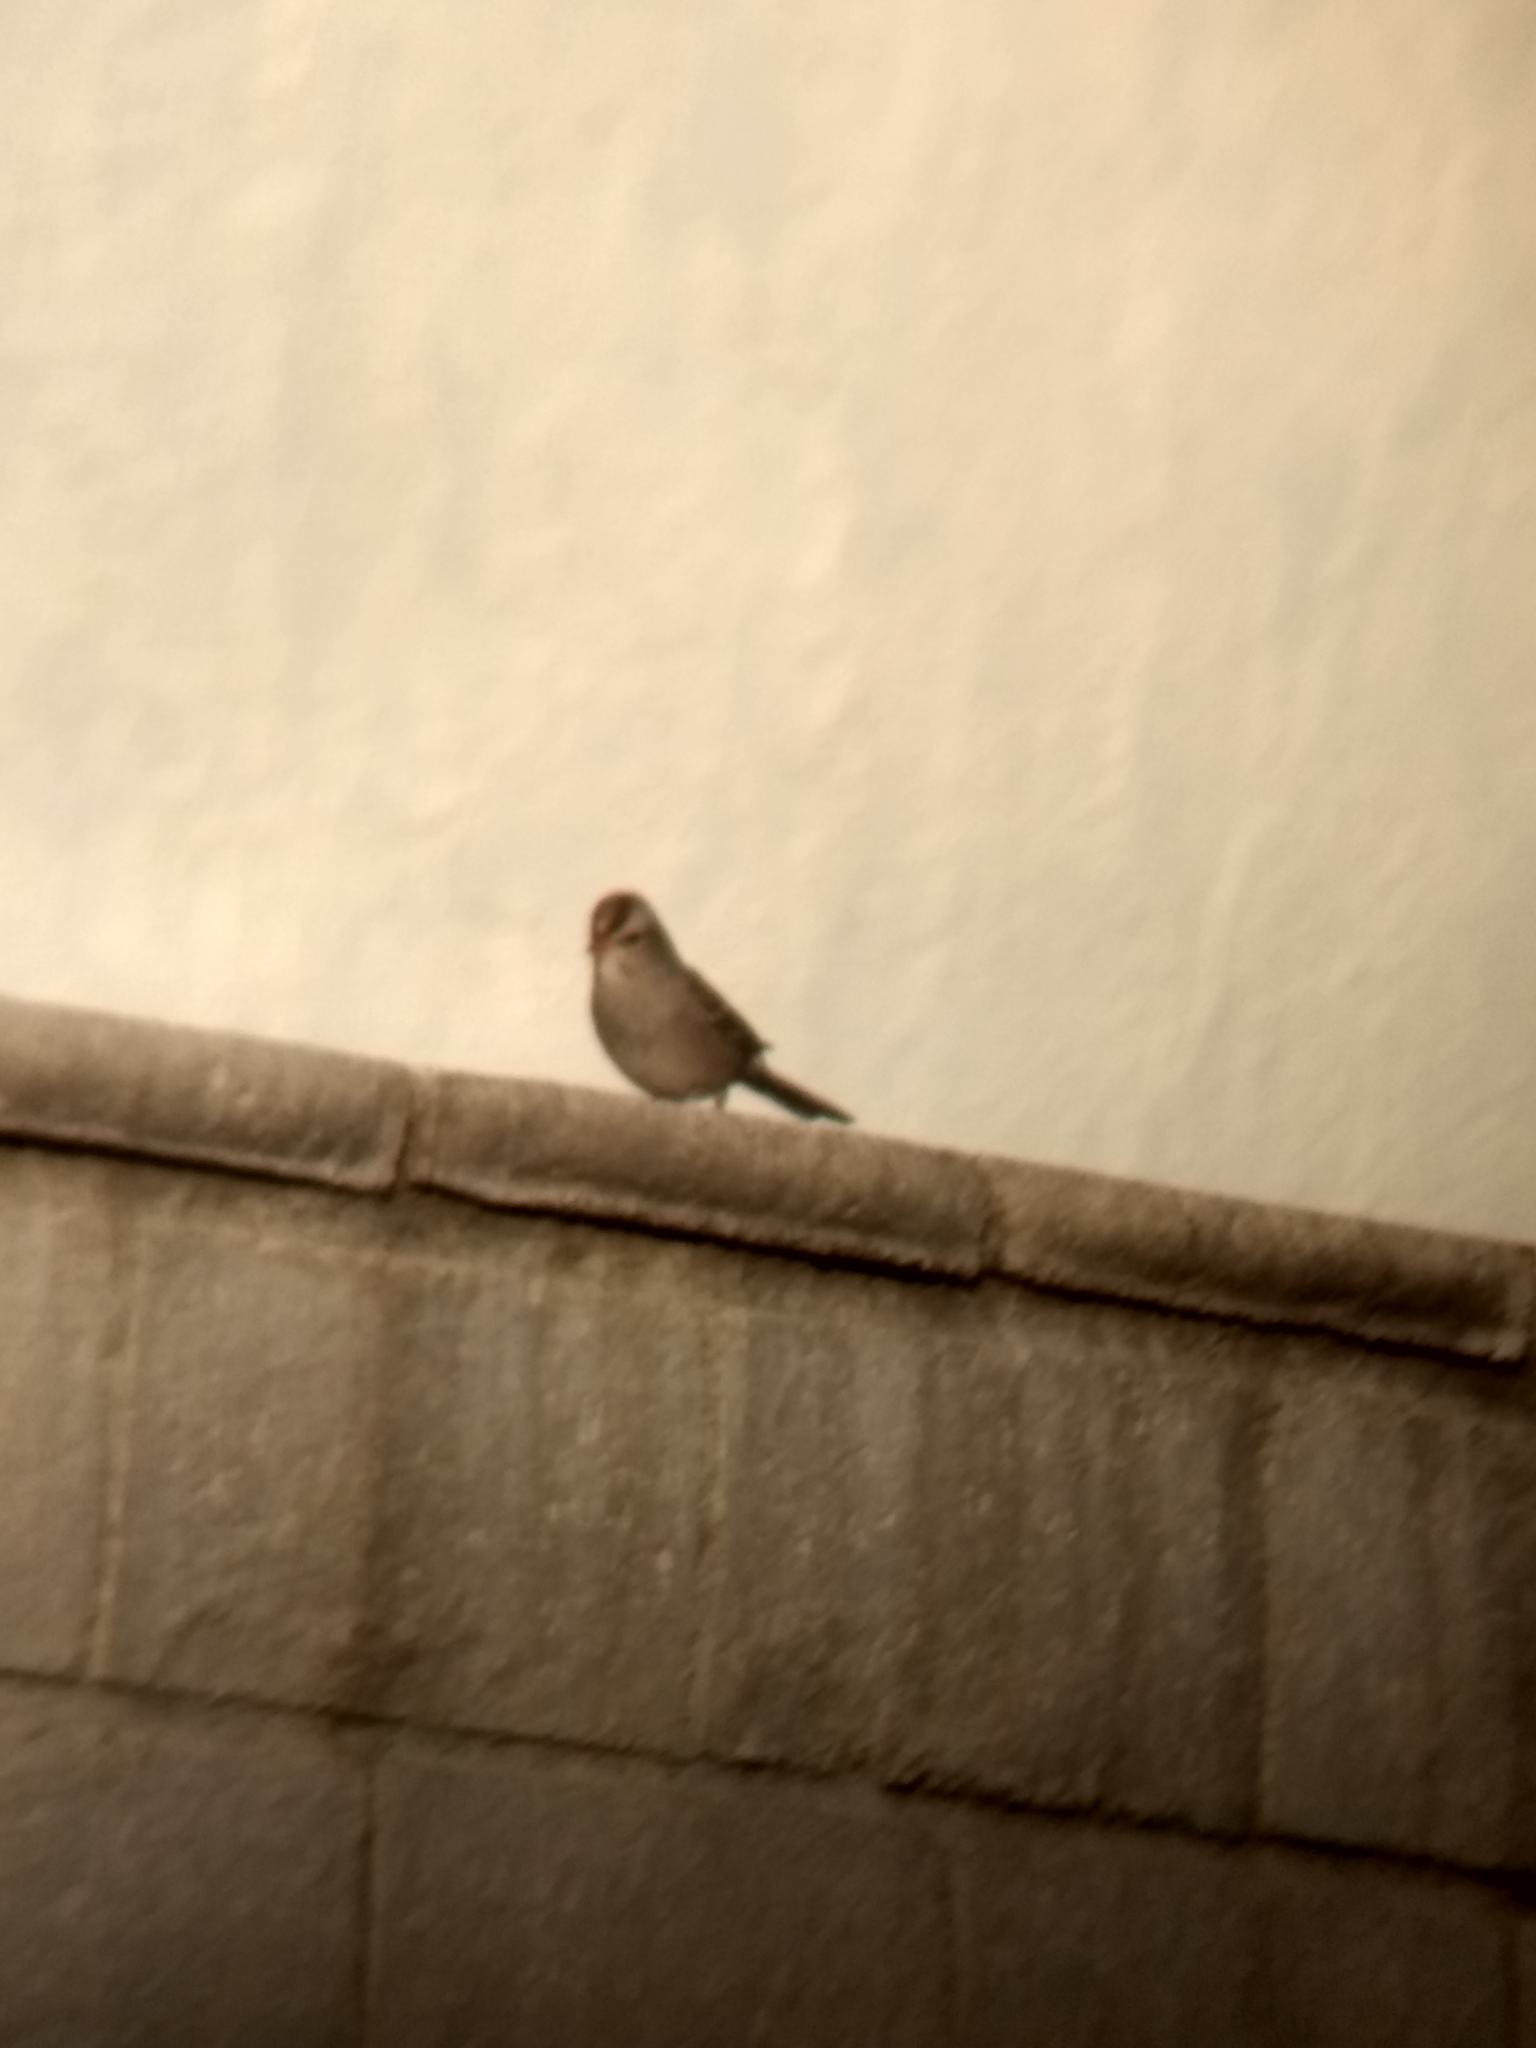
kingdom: Animalia
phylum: Chordata
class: Aves
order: Passeriformes
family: Passerellidae
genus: Zonotrichia
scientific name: Zonotrichia leucophrys
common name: White-crowned sparrow
